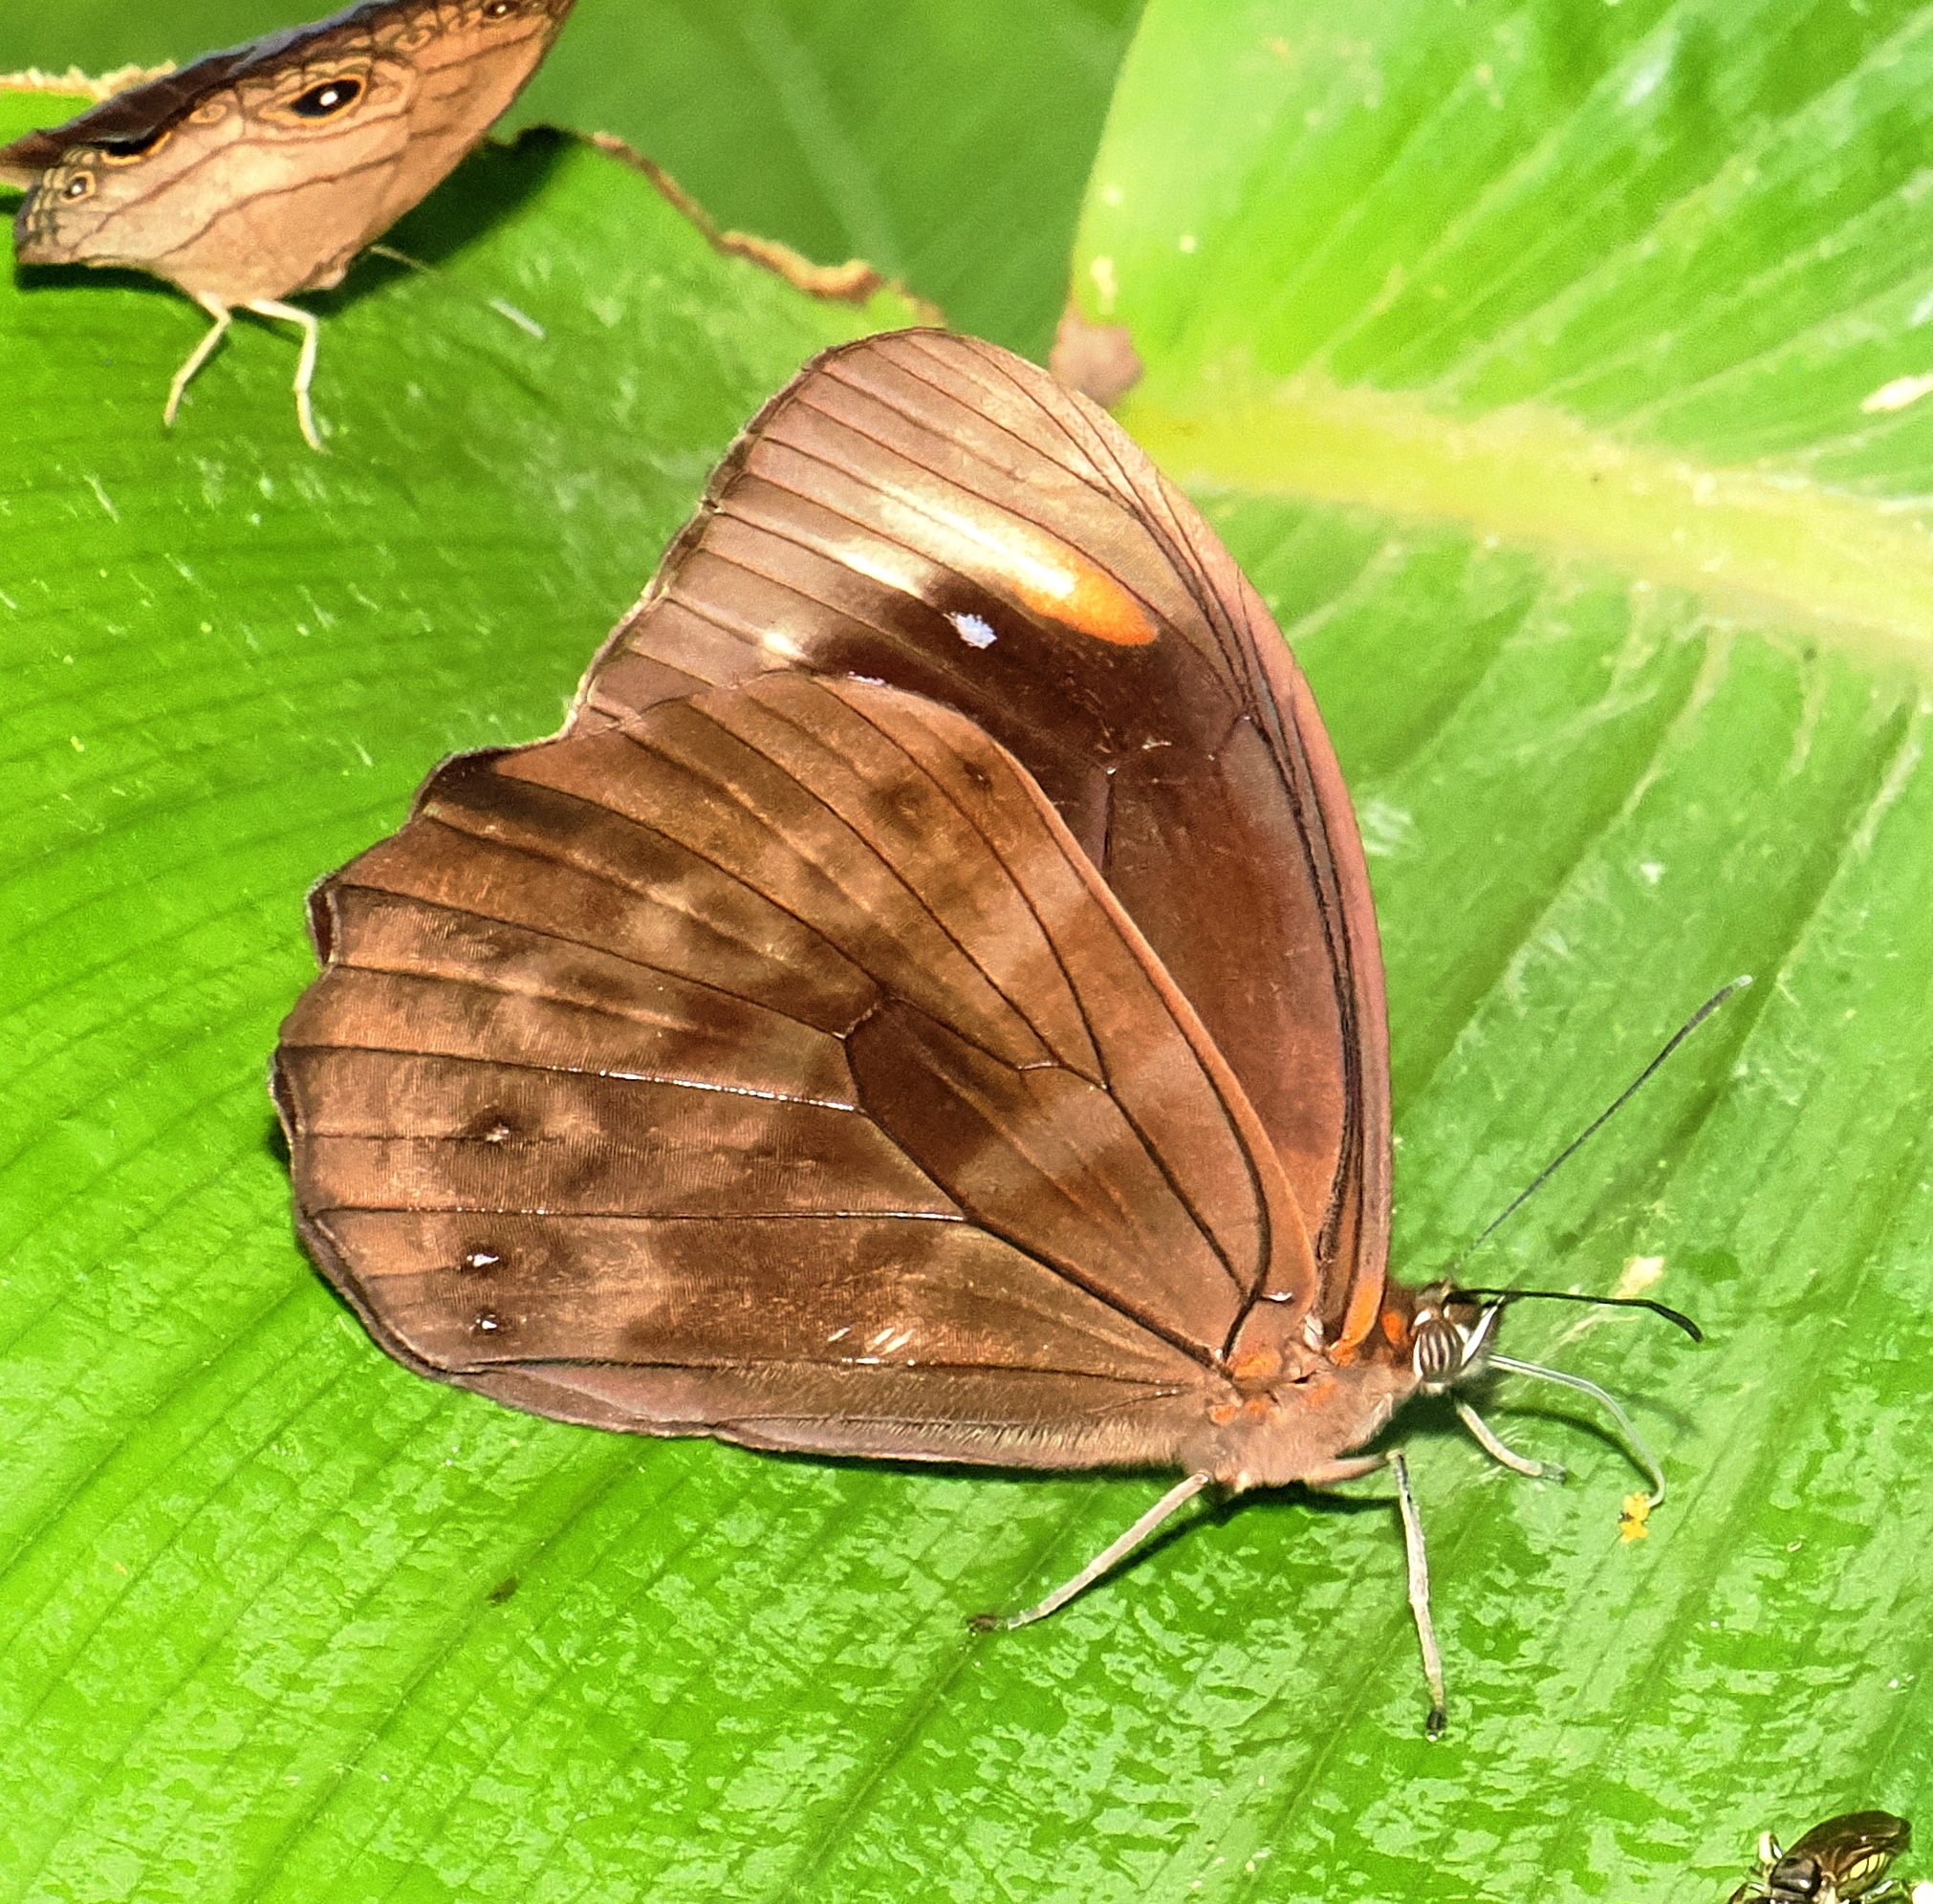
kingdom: Animalia
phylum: Arthropoda
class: Insecta
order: Lepidoptera
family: Nymphalidae
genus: Pronophila
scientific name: Pronophila unifasciata
